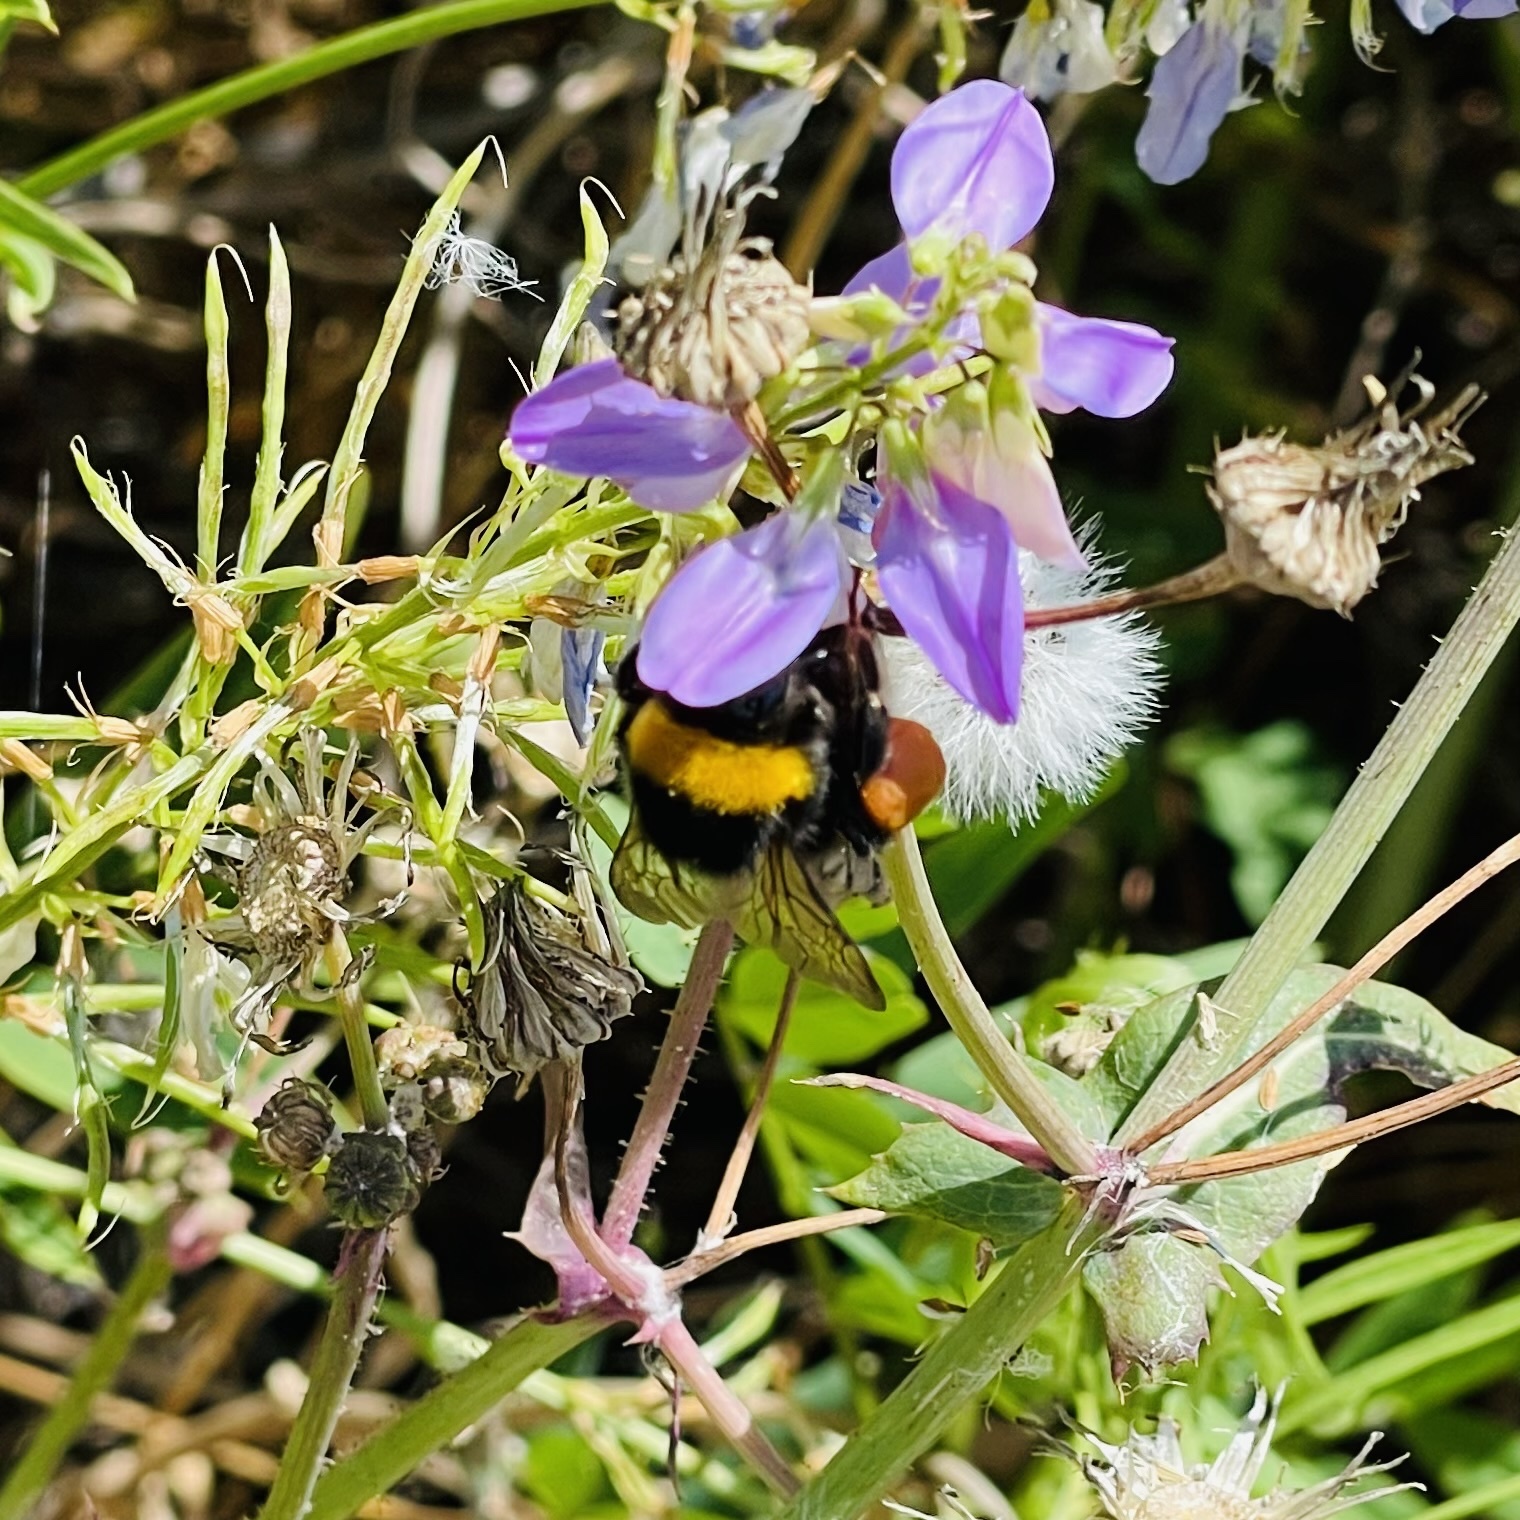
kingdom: Animalia
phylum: Arthropoda
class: Insecta
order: Hymenoptera
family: Apidae
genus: Bombus
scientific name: Bombus terrestris
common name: Buff-tailed bumblebee
